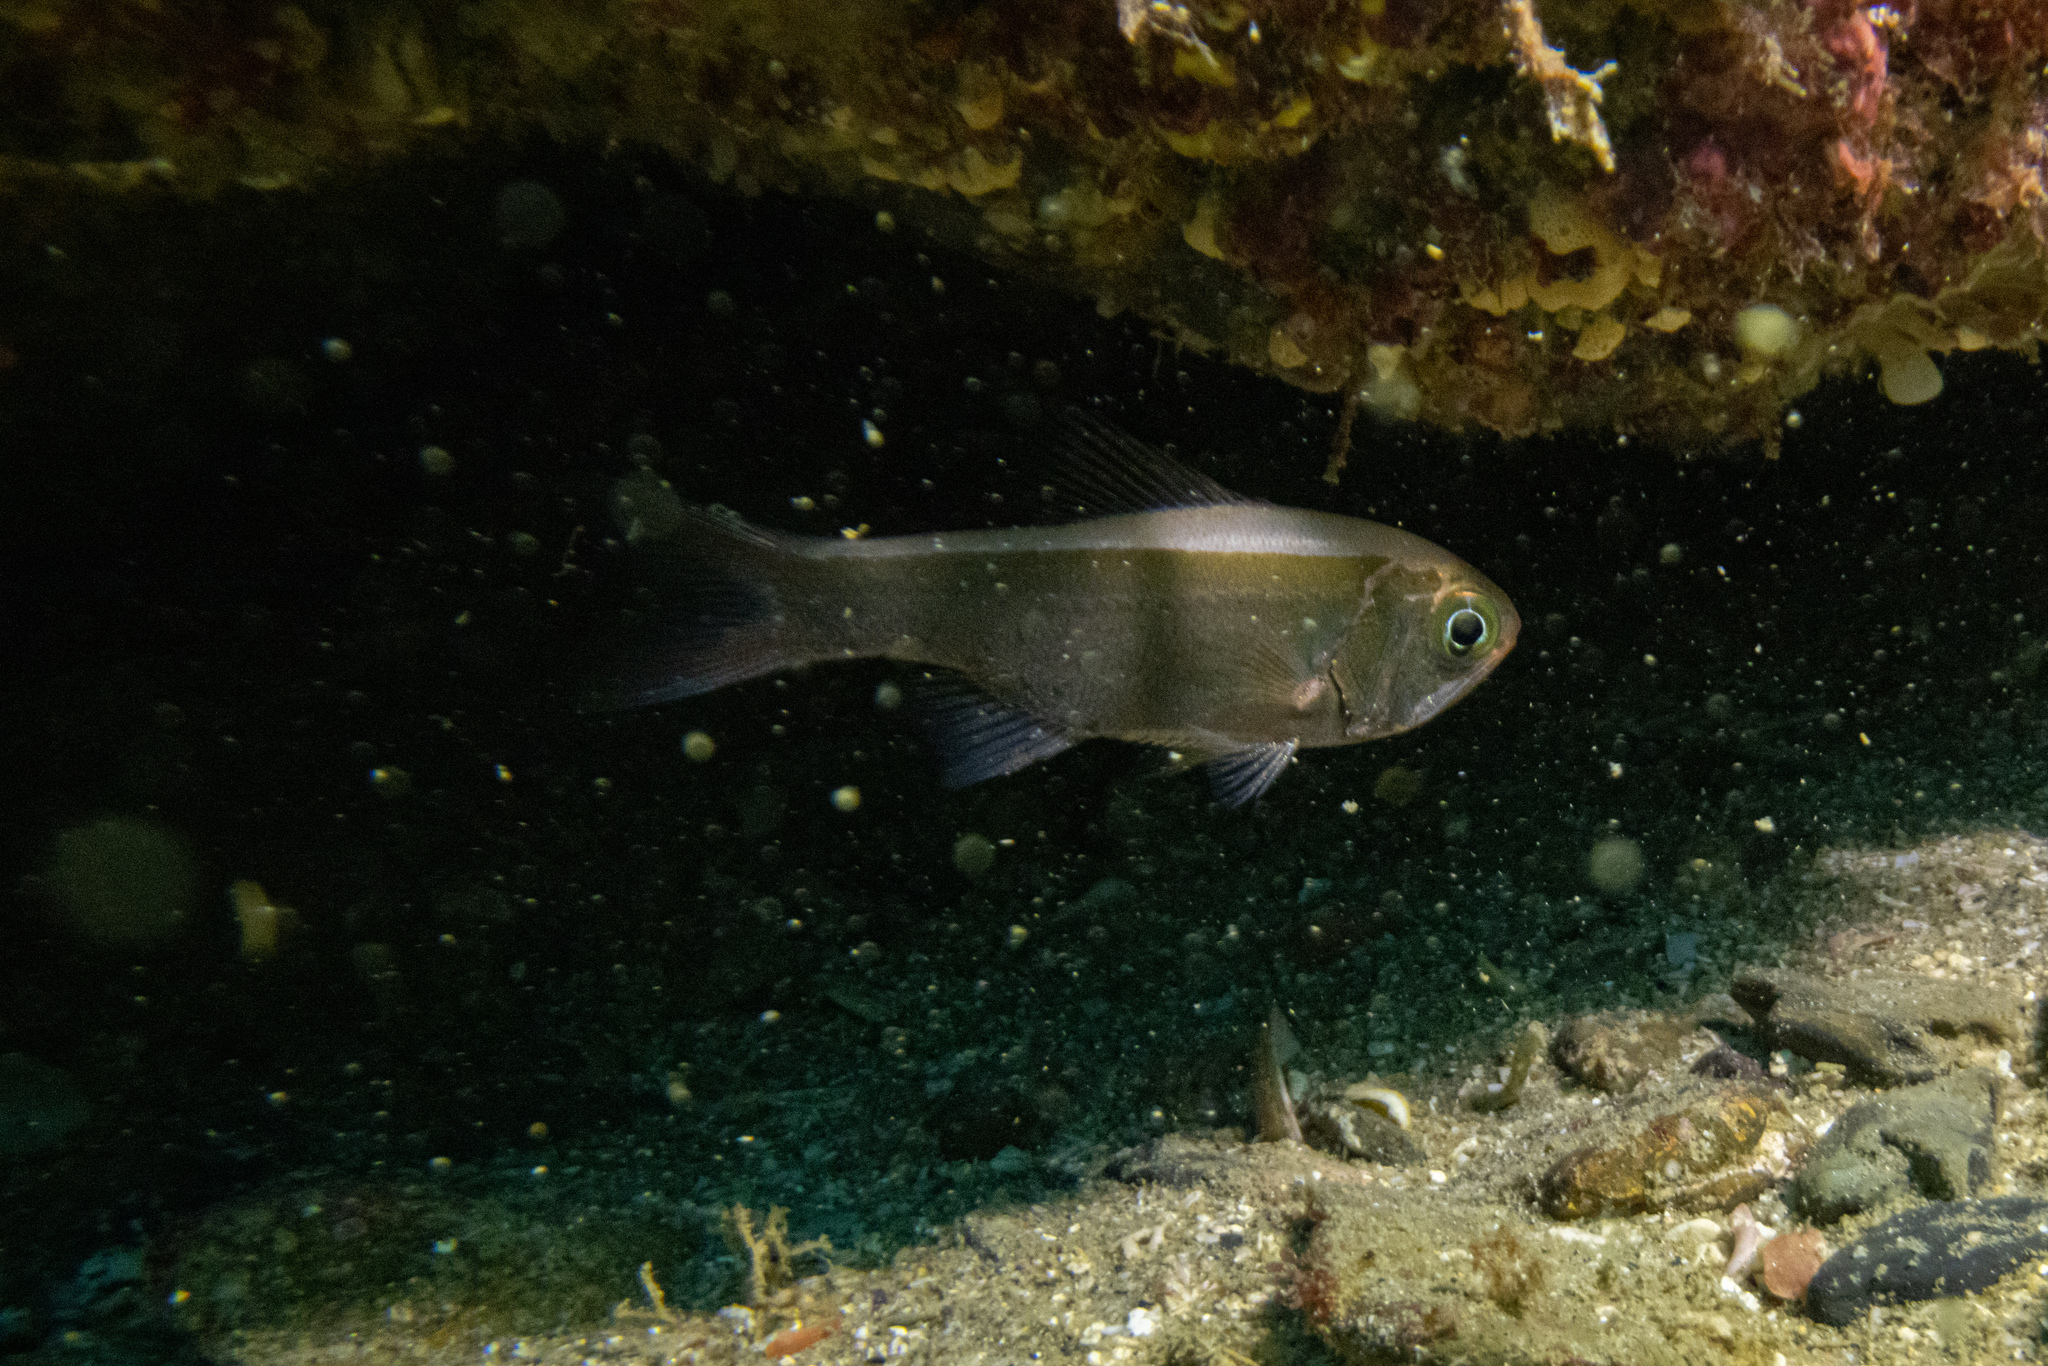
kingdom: Animalia
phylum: Chordata
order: Beryciformes
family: Trachichthyidae
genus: Optivus
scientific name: Optivus elongatus
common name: Slender roughy
